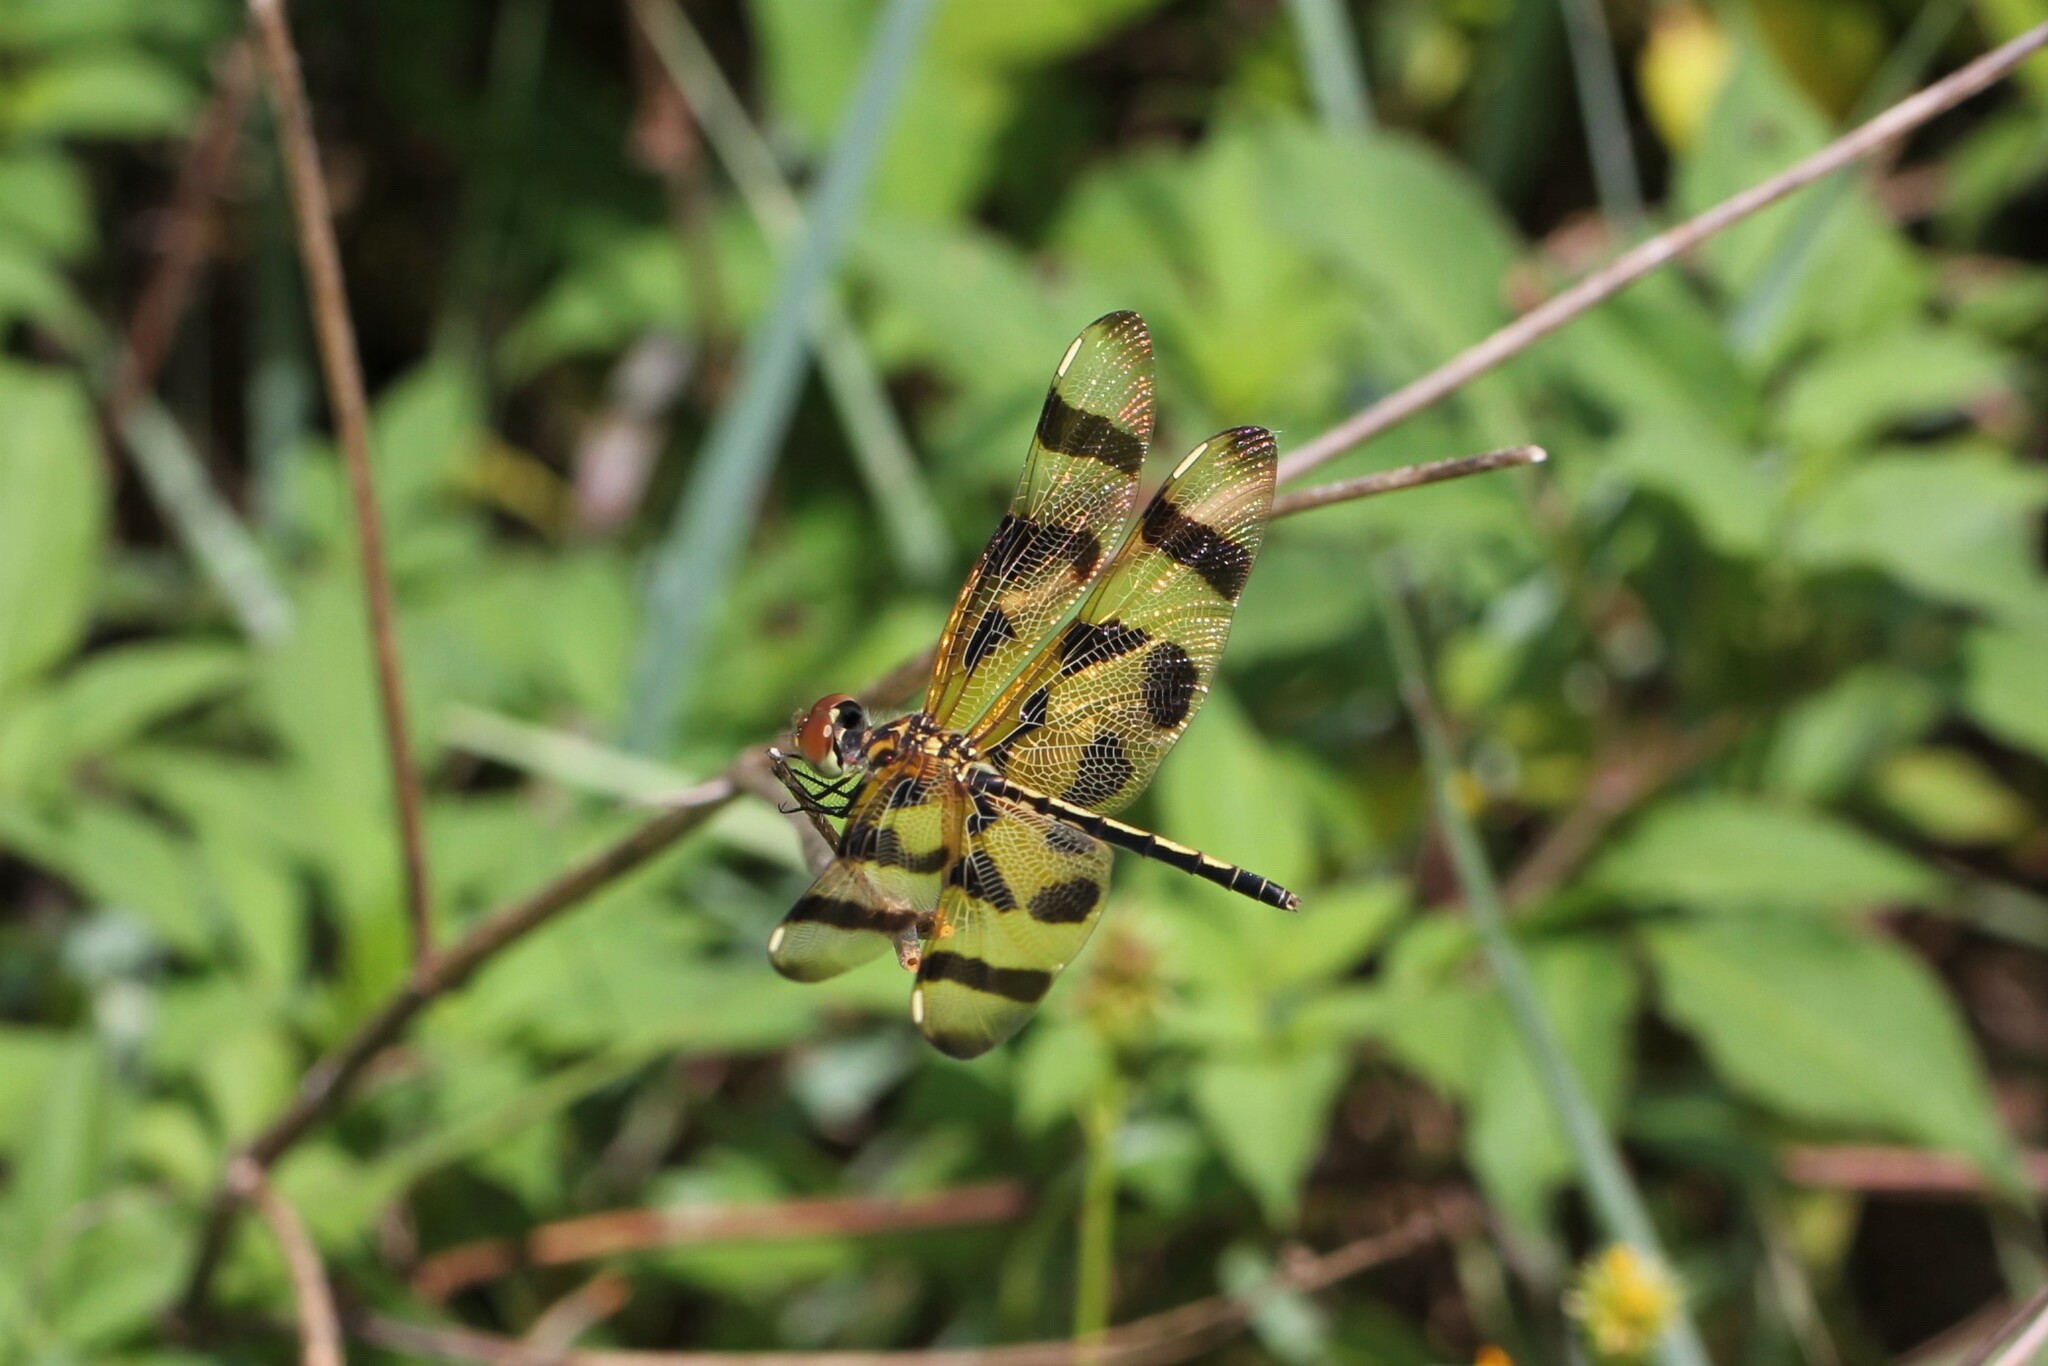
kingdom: Animalia
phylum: Arthropoda
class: Insecta
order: Odonata
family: Libellulidae
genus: Celithemis
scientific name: Celithemis eponina
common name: Halloween pennant
